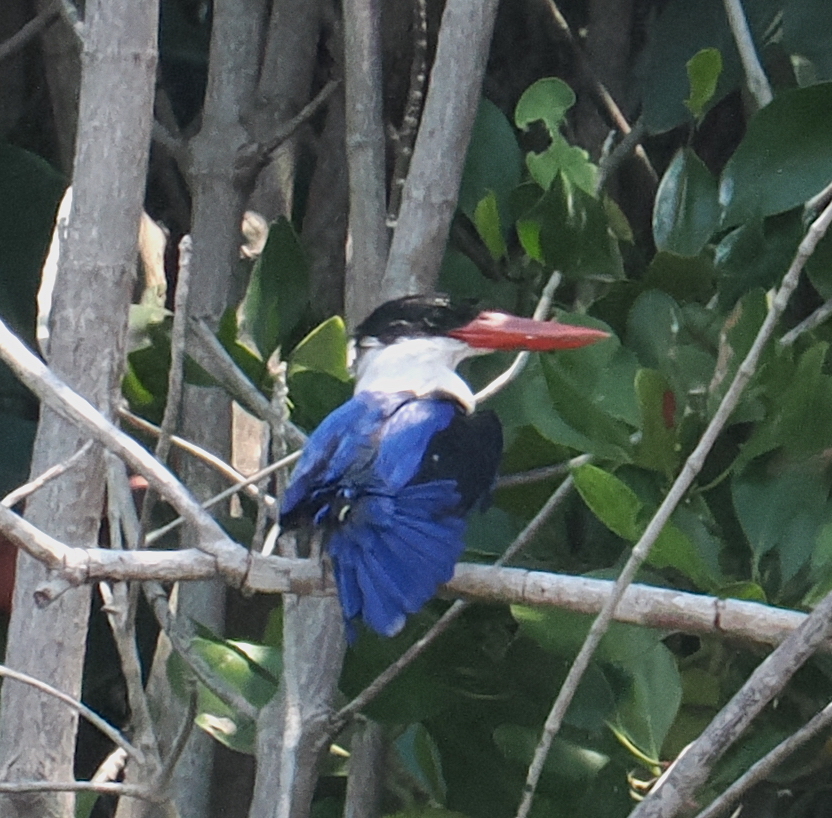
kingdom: Animalia
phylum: Chordata
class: Aves
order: Coraciiformes
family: Alcedinidae
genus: Halcyon
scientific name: Halcyon pileata
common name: Black-capped kingfisher
